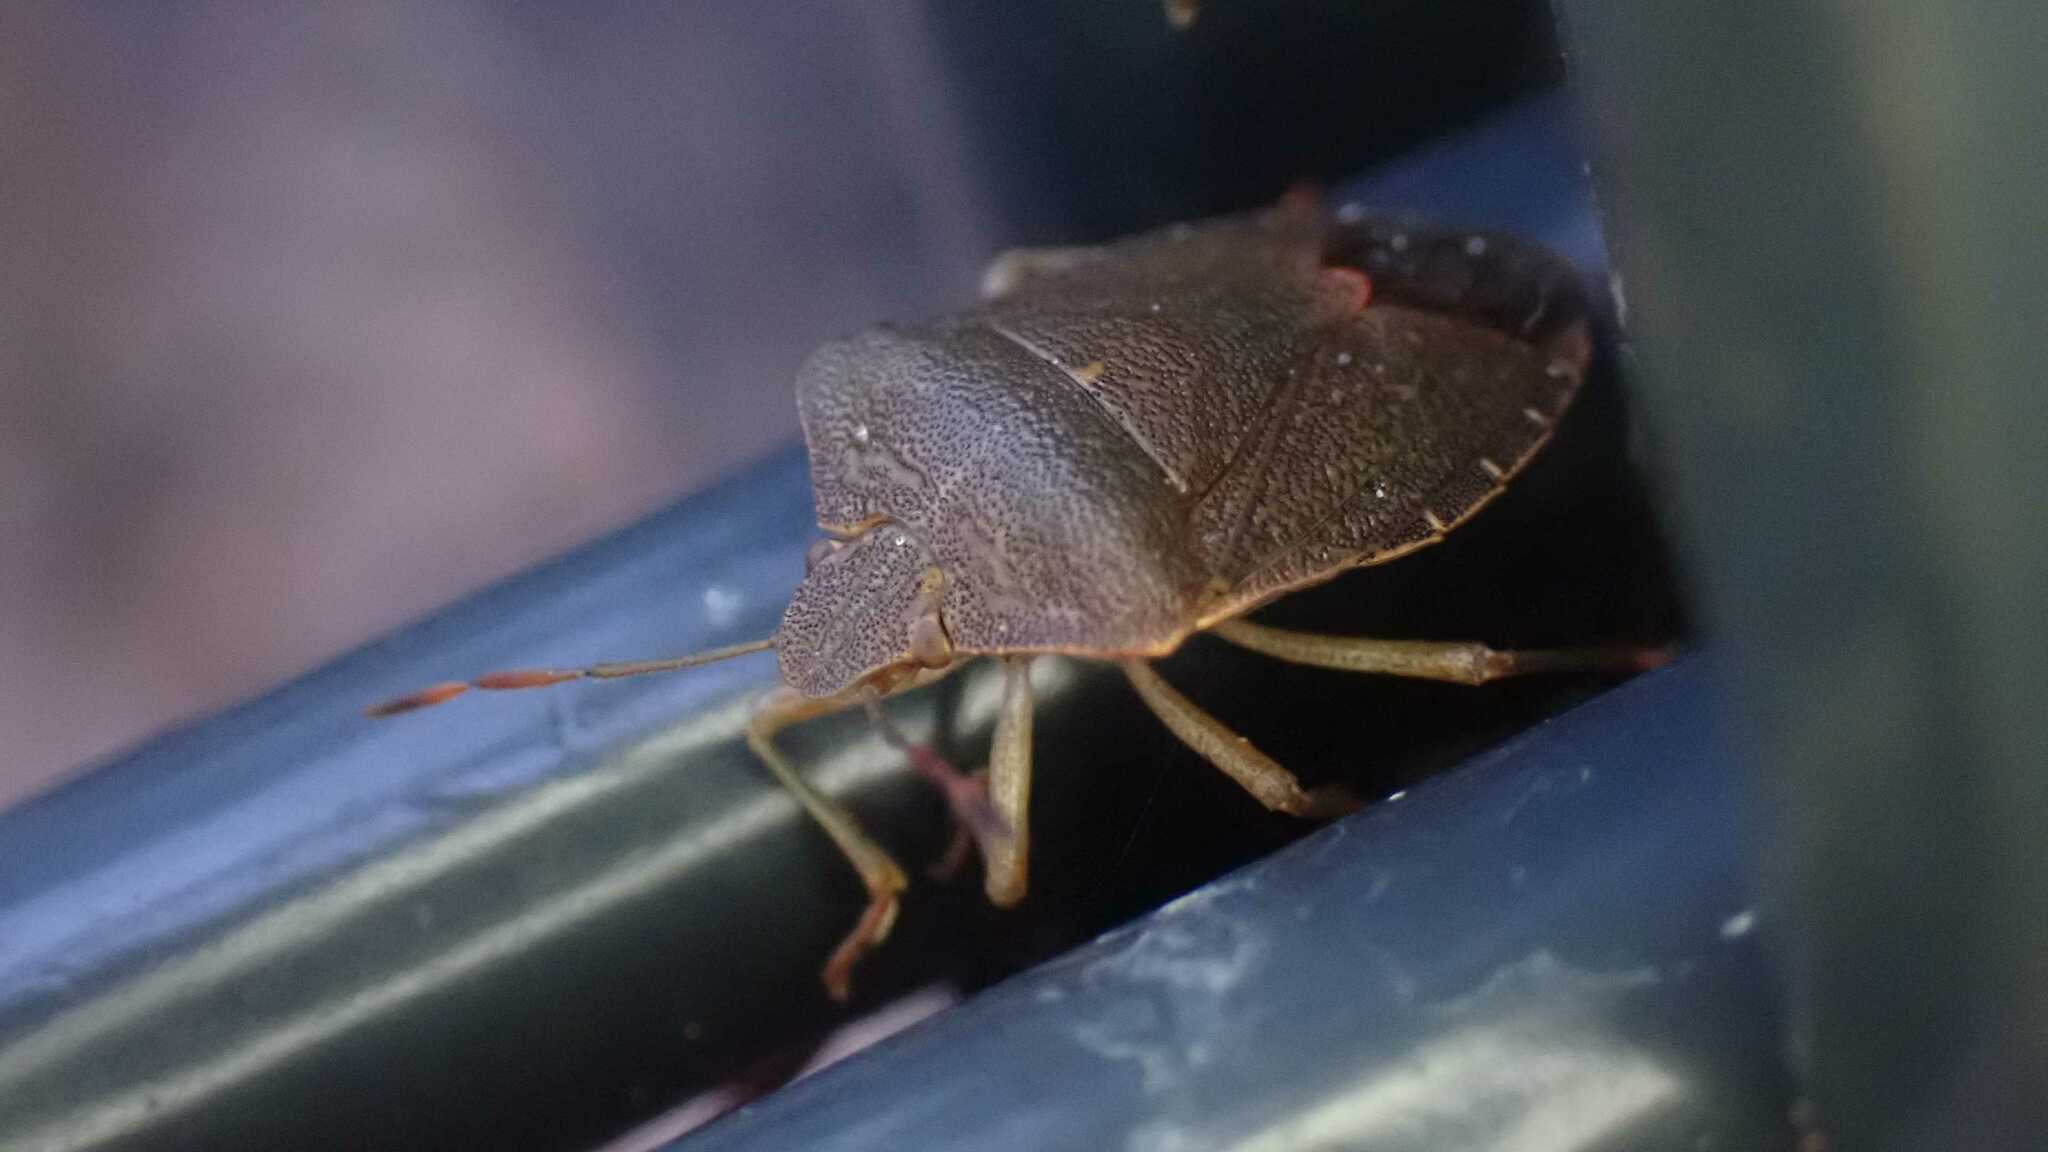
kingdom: Animalia
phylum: Arthropoda
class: Insecta
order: Hemiptera
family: Pentatomidae
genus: Palomena
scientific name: Palomena prasina
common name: Green shieldbug
